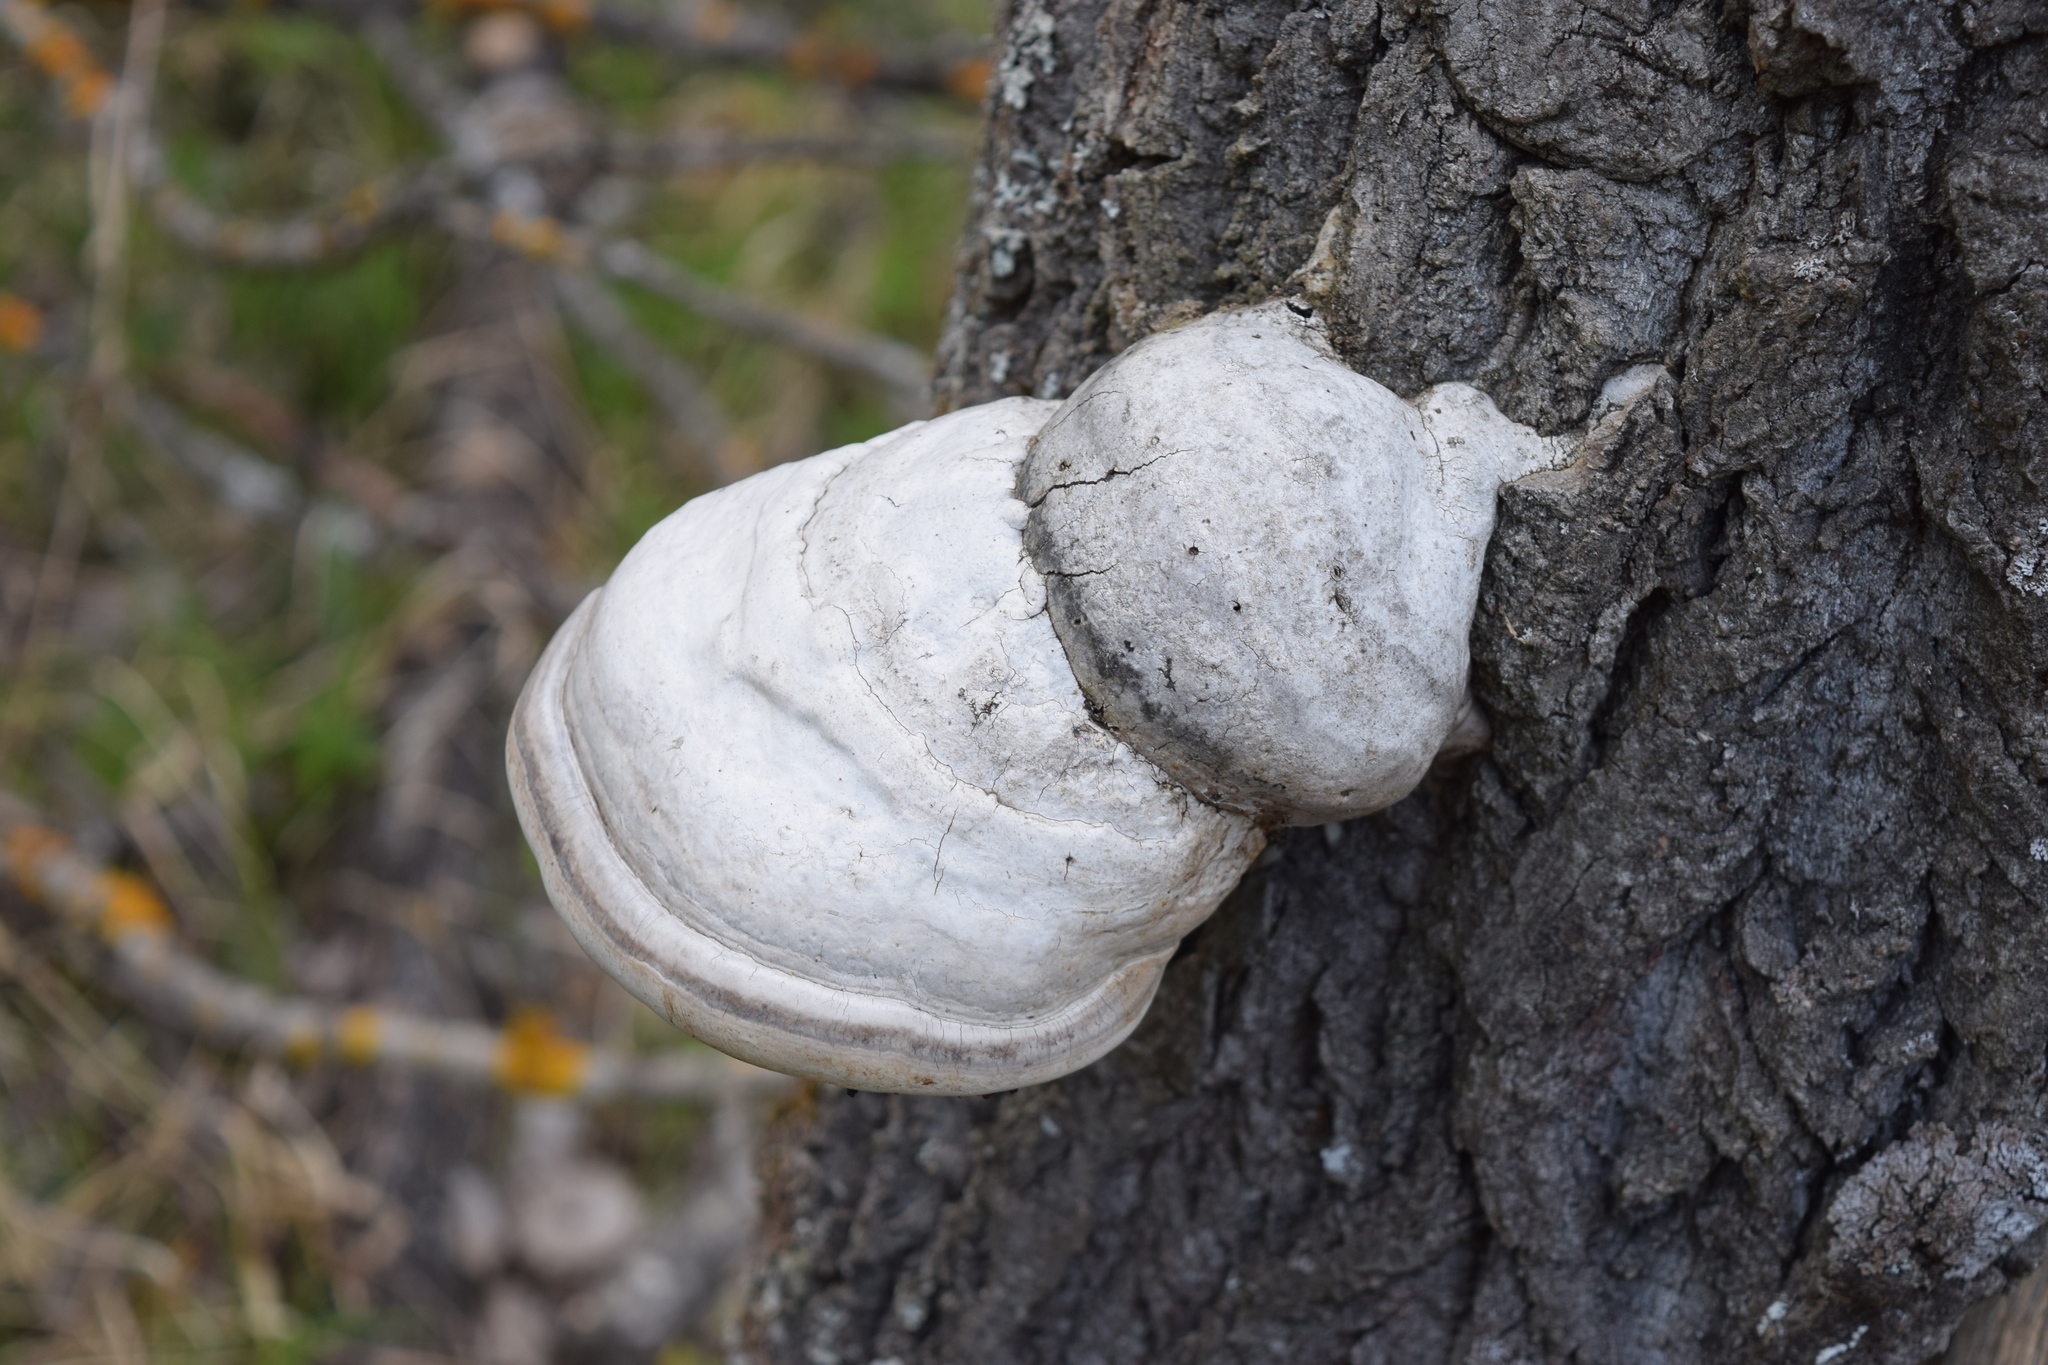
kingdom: Fungi
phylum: Basidiomycota
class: Agaricomycetes
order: Polyporales
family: Polyporaceae
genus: Fomes
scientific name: Fomes fomentarius
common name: Hoof fungus
